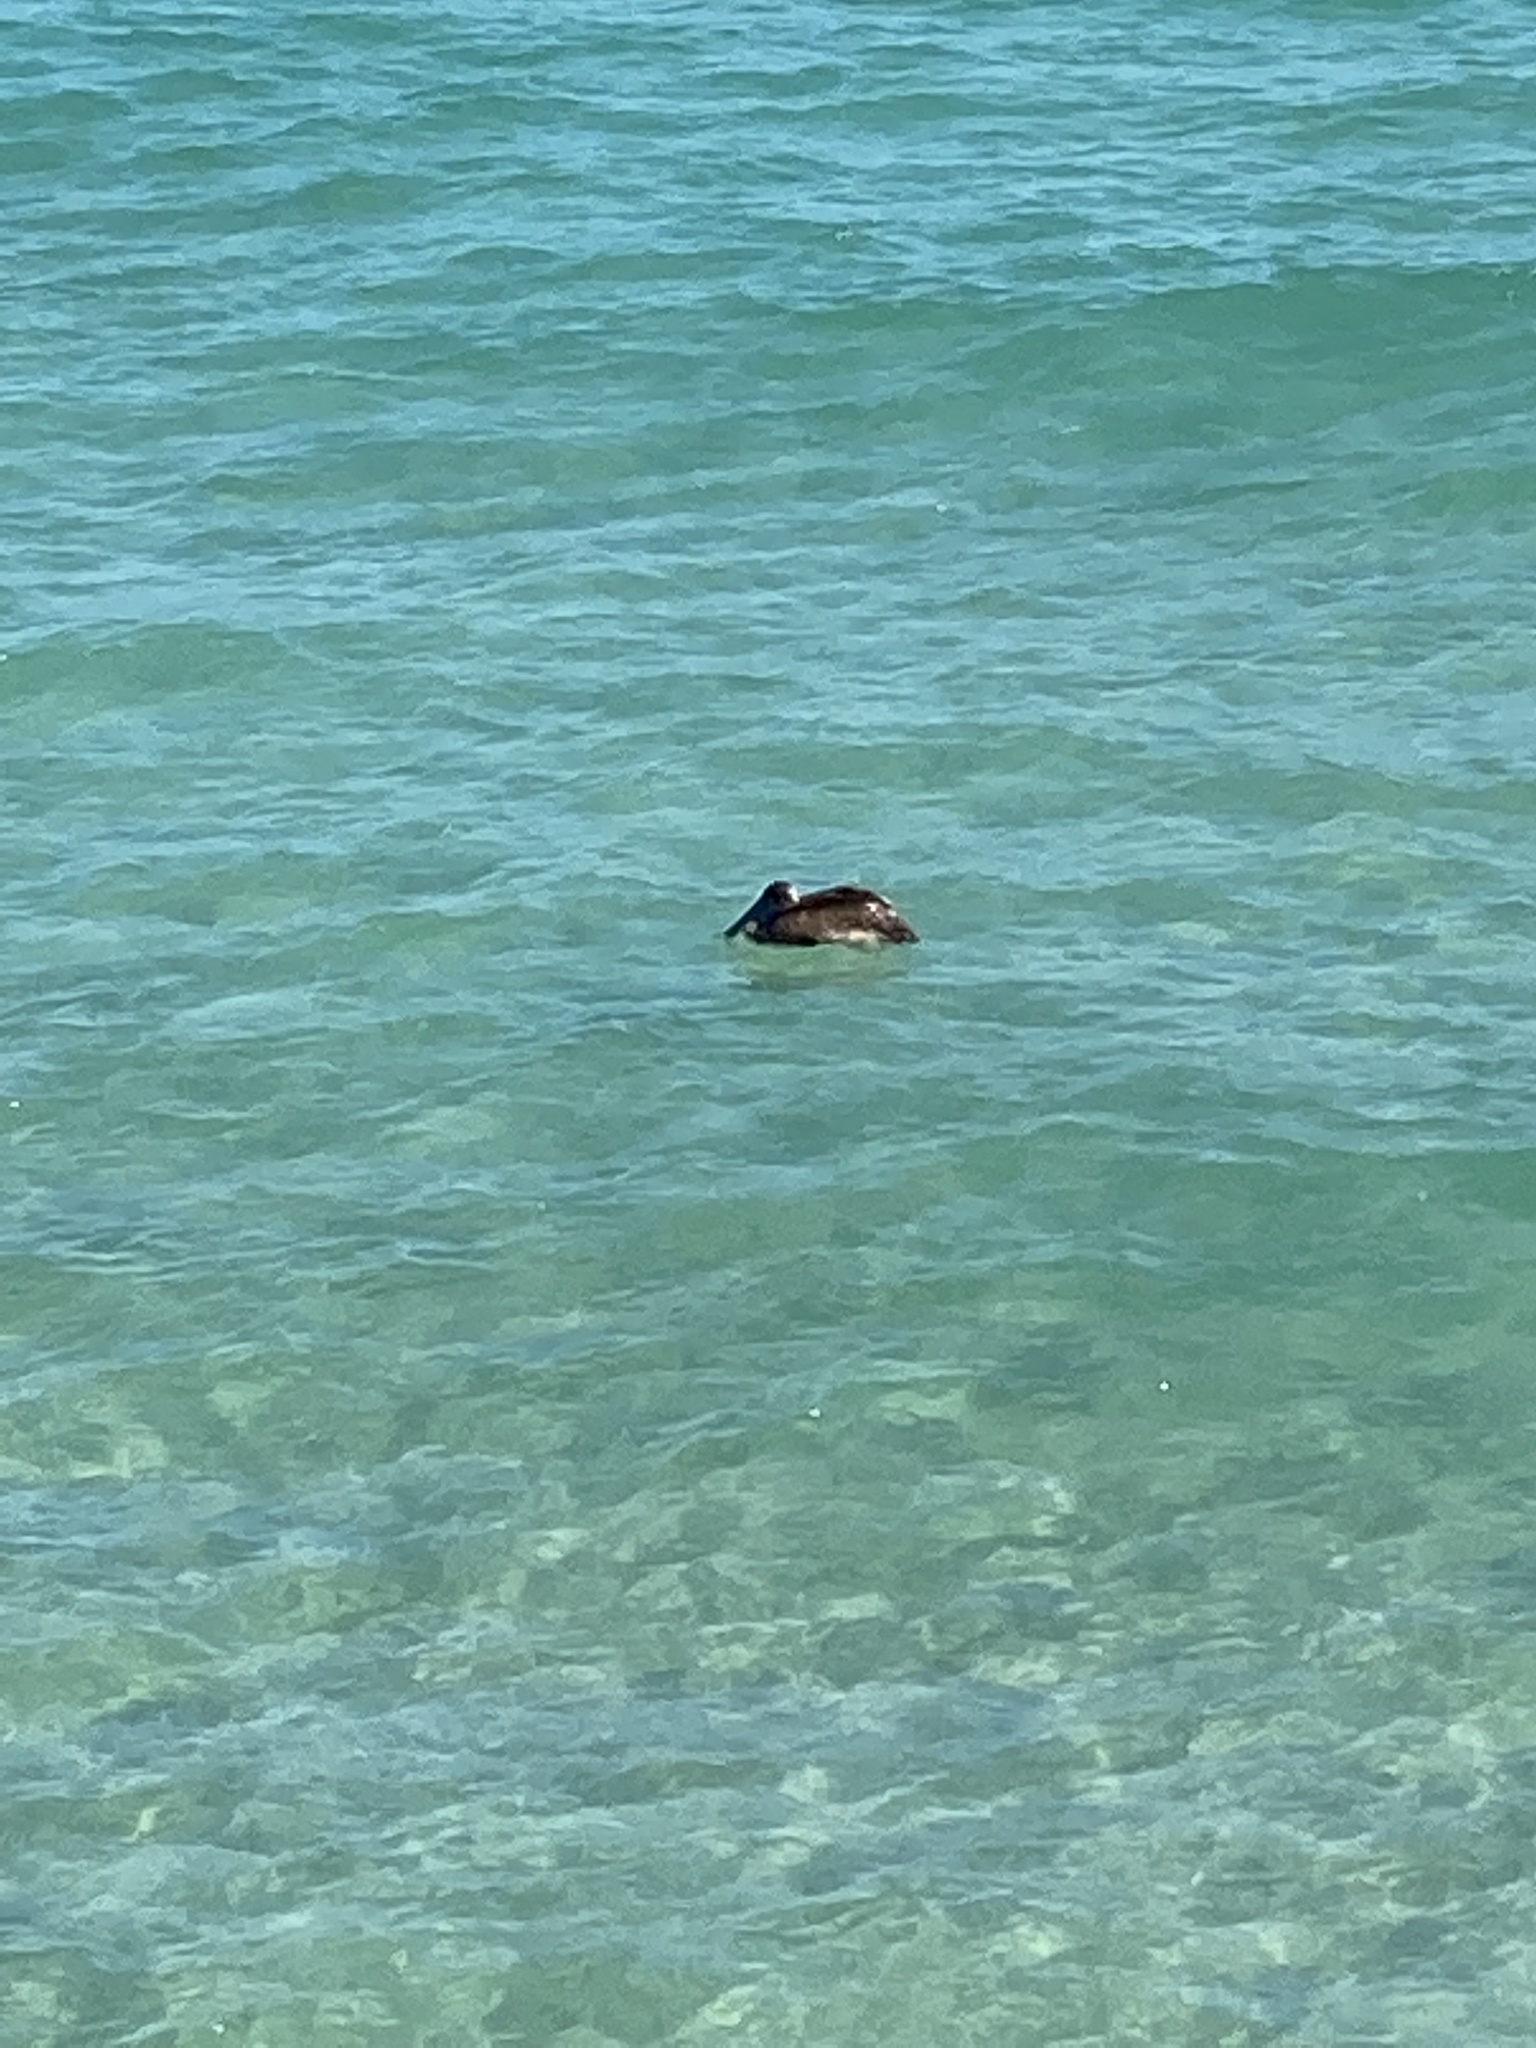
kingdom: Animalia
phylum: Chordata
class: Aves
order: Pelecaniformes
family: Pelecanidae
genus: Pelecanus
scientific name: Pelecanus occidentalis
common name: Brown pelican
